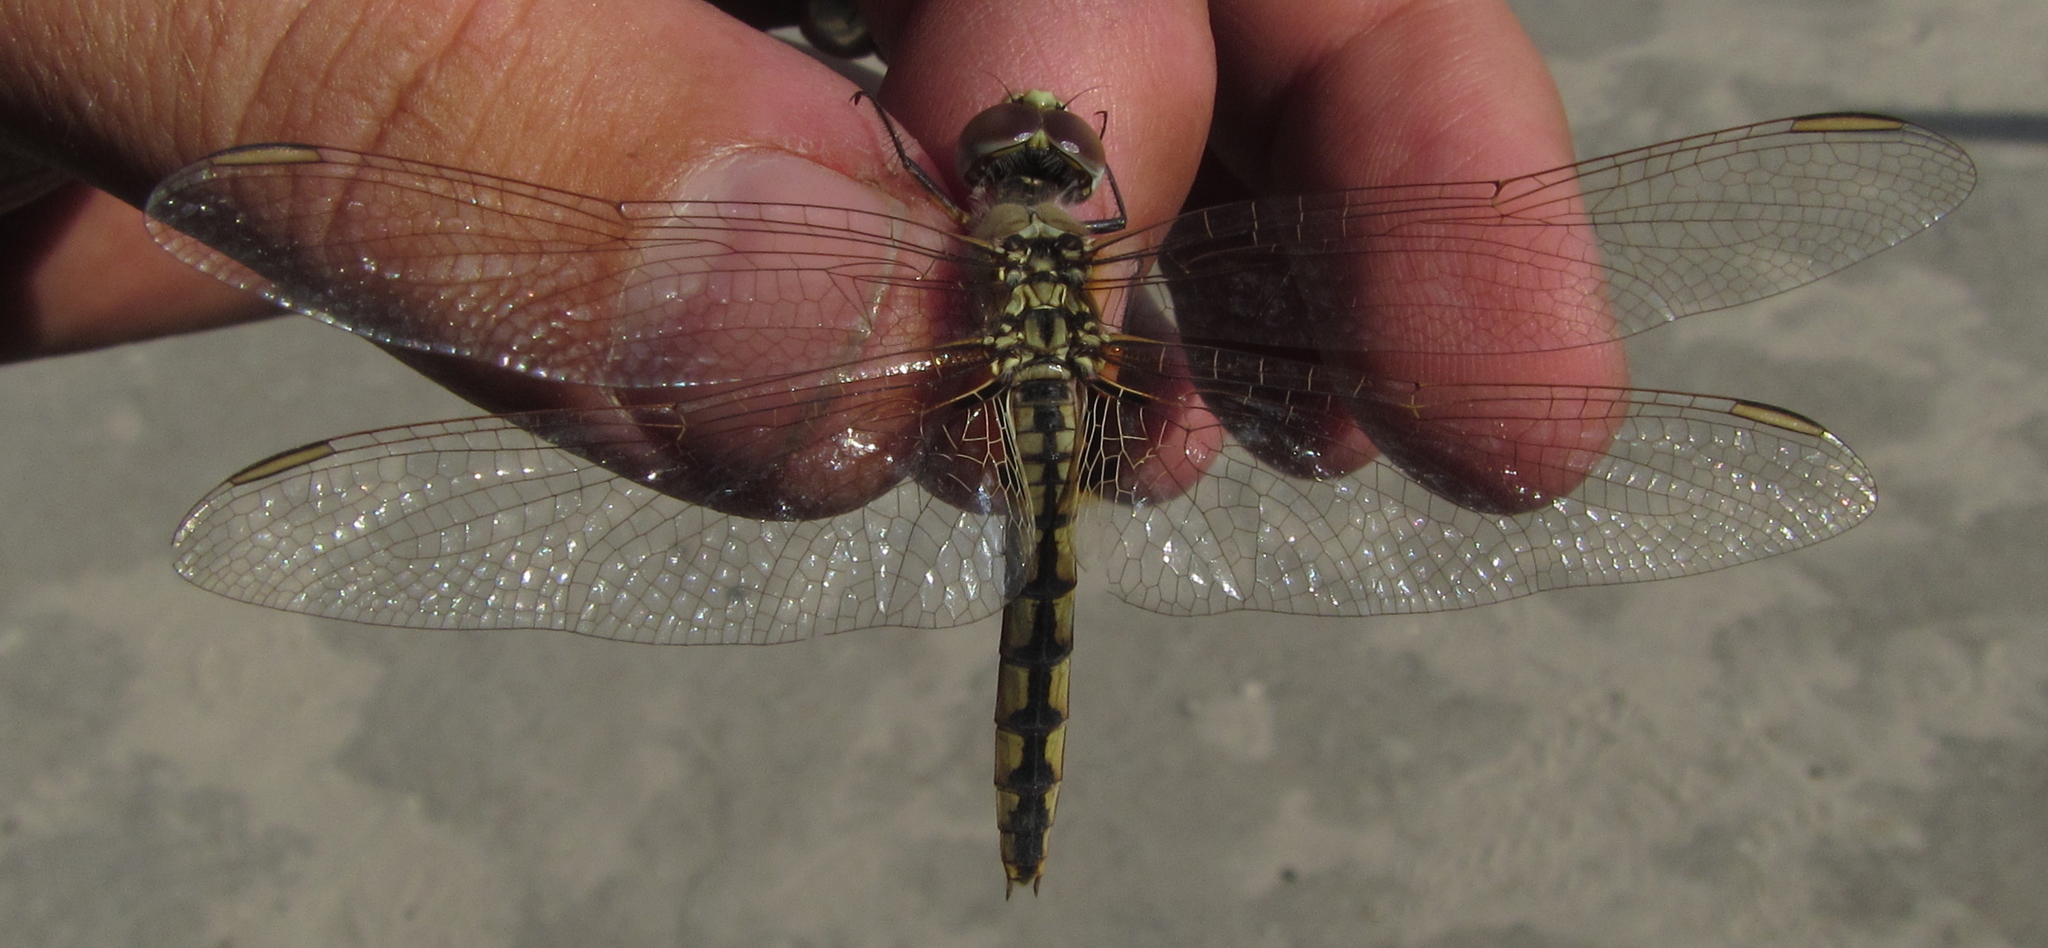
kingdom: Animalia
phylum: Arthropoda
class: Insecta
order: Odonata
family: Libellulidae
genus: Urothemis
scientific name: Urothemis edwardsii
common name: Blue basker
